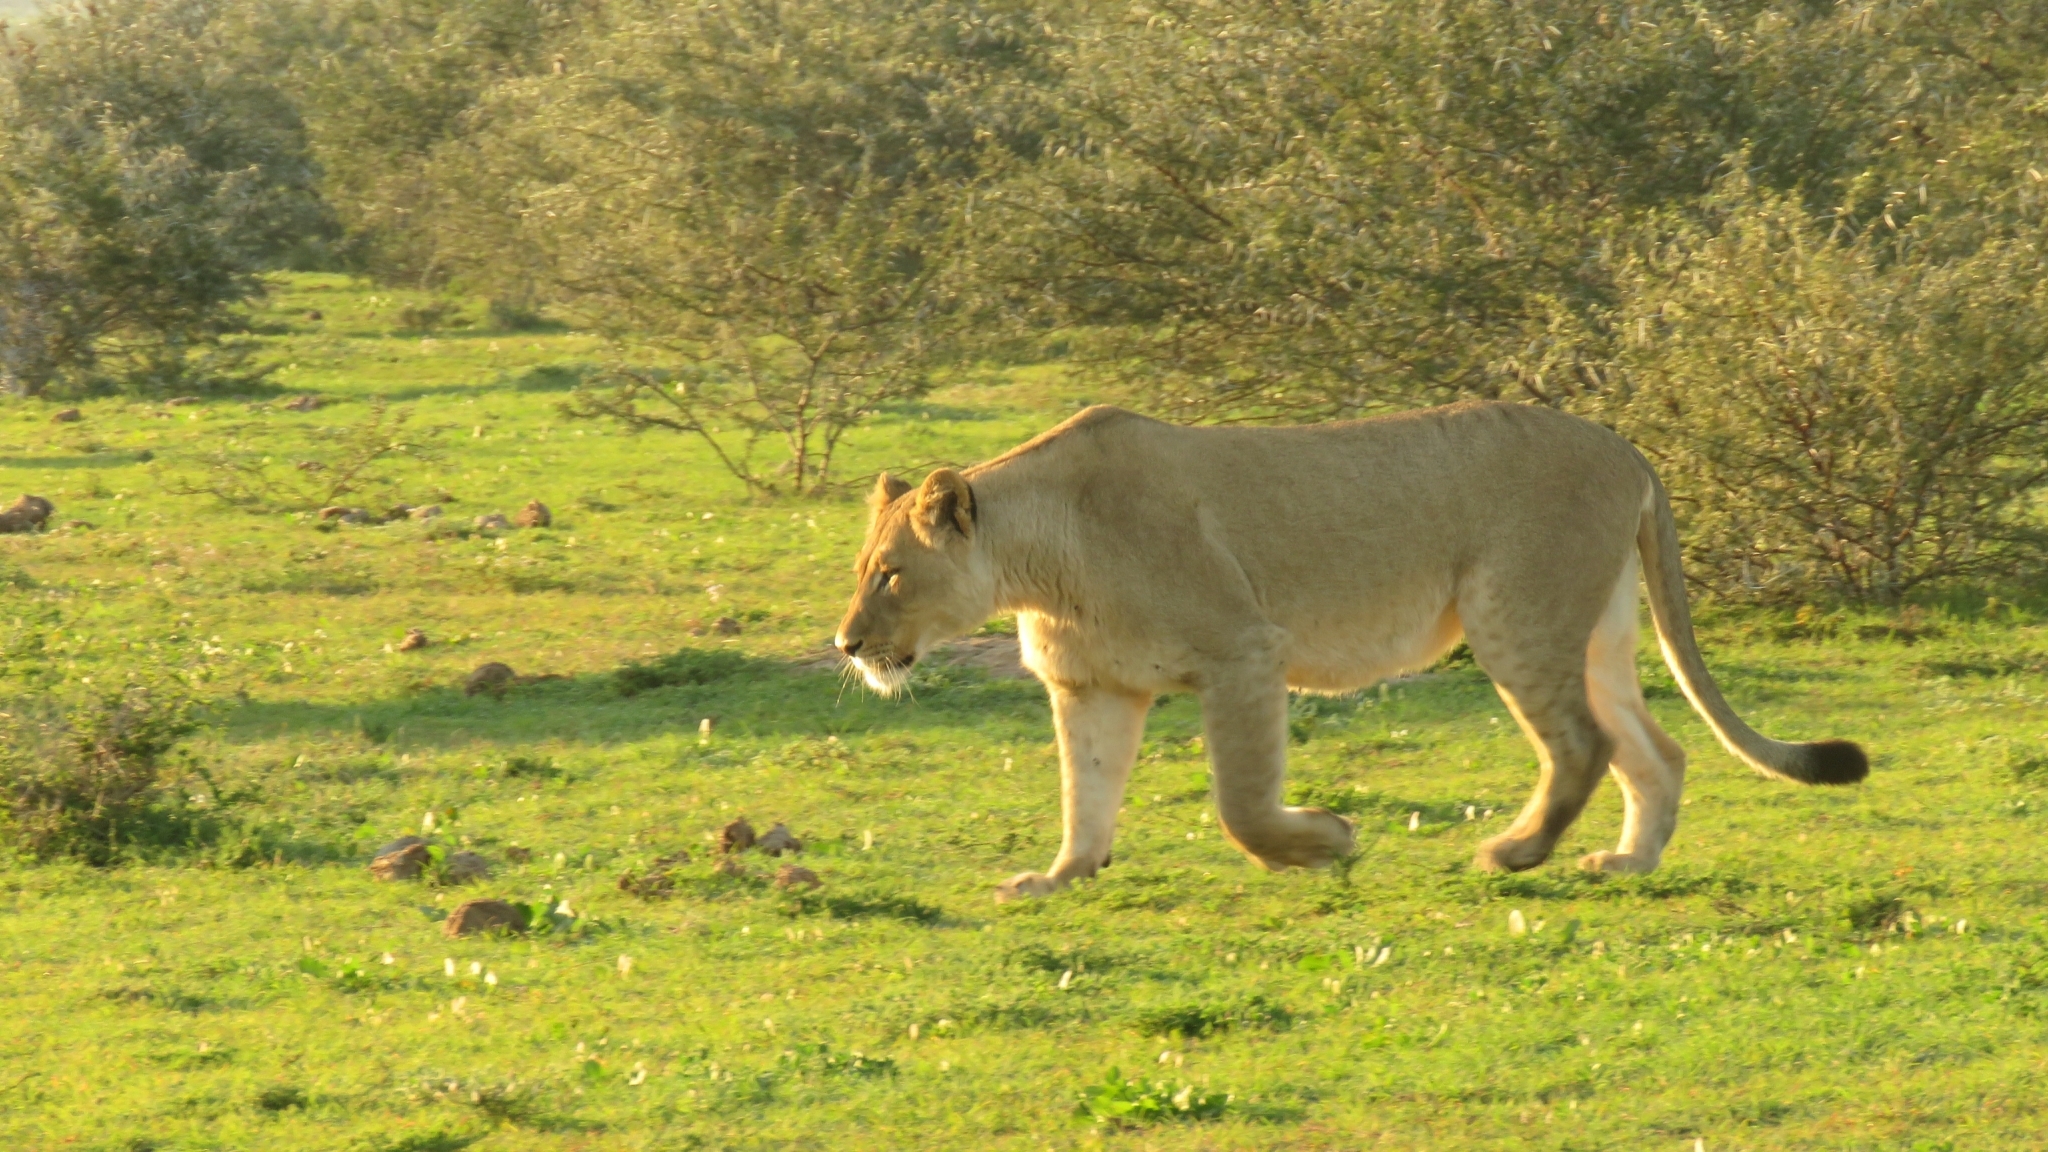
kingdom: Animalia
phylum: Chordata
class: Mammalia
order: Carnivora
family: Felidae
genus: Panthera
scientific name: Panthera leo
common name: Lion
